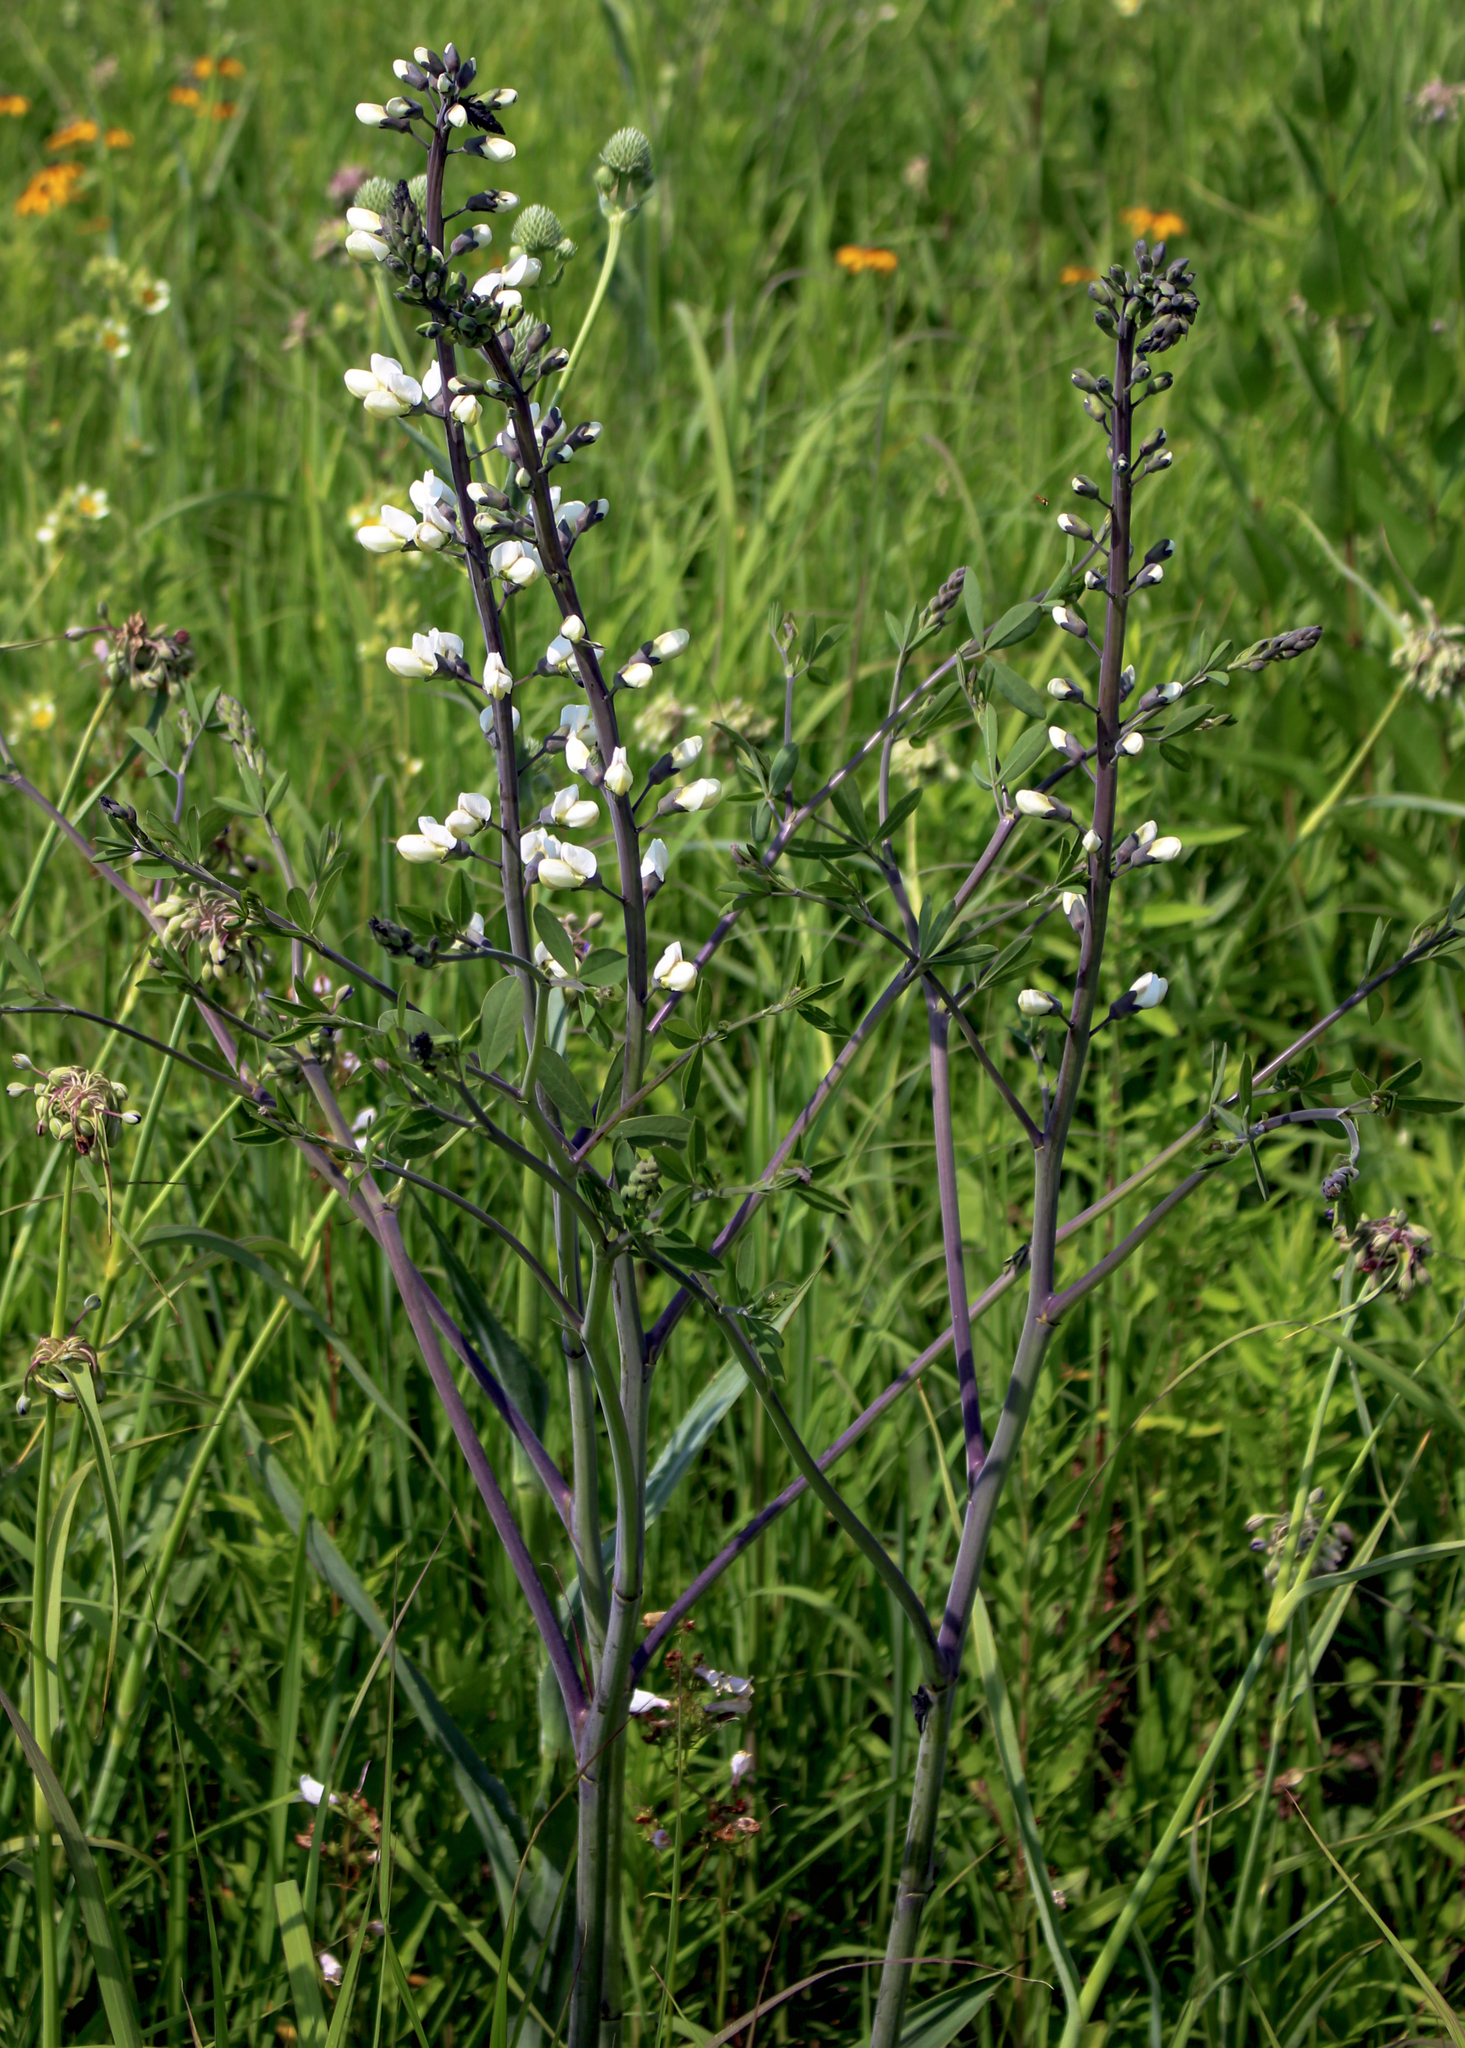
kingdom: Plantae
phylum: Tracheophyta
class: Magnoliopsida
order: Fabales
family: Fabaceae
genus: Baptisia
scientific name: Baptisia alba
